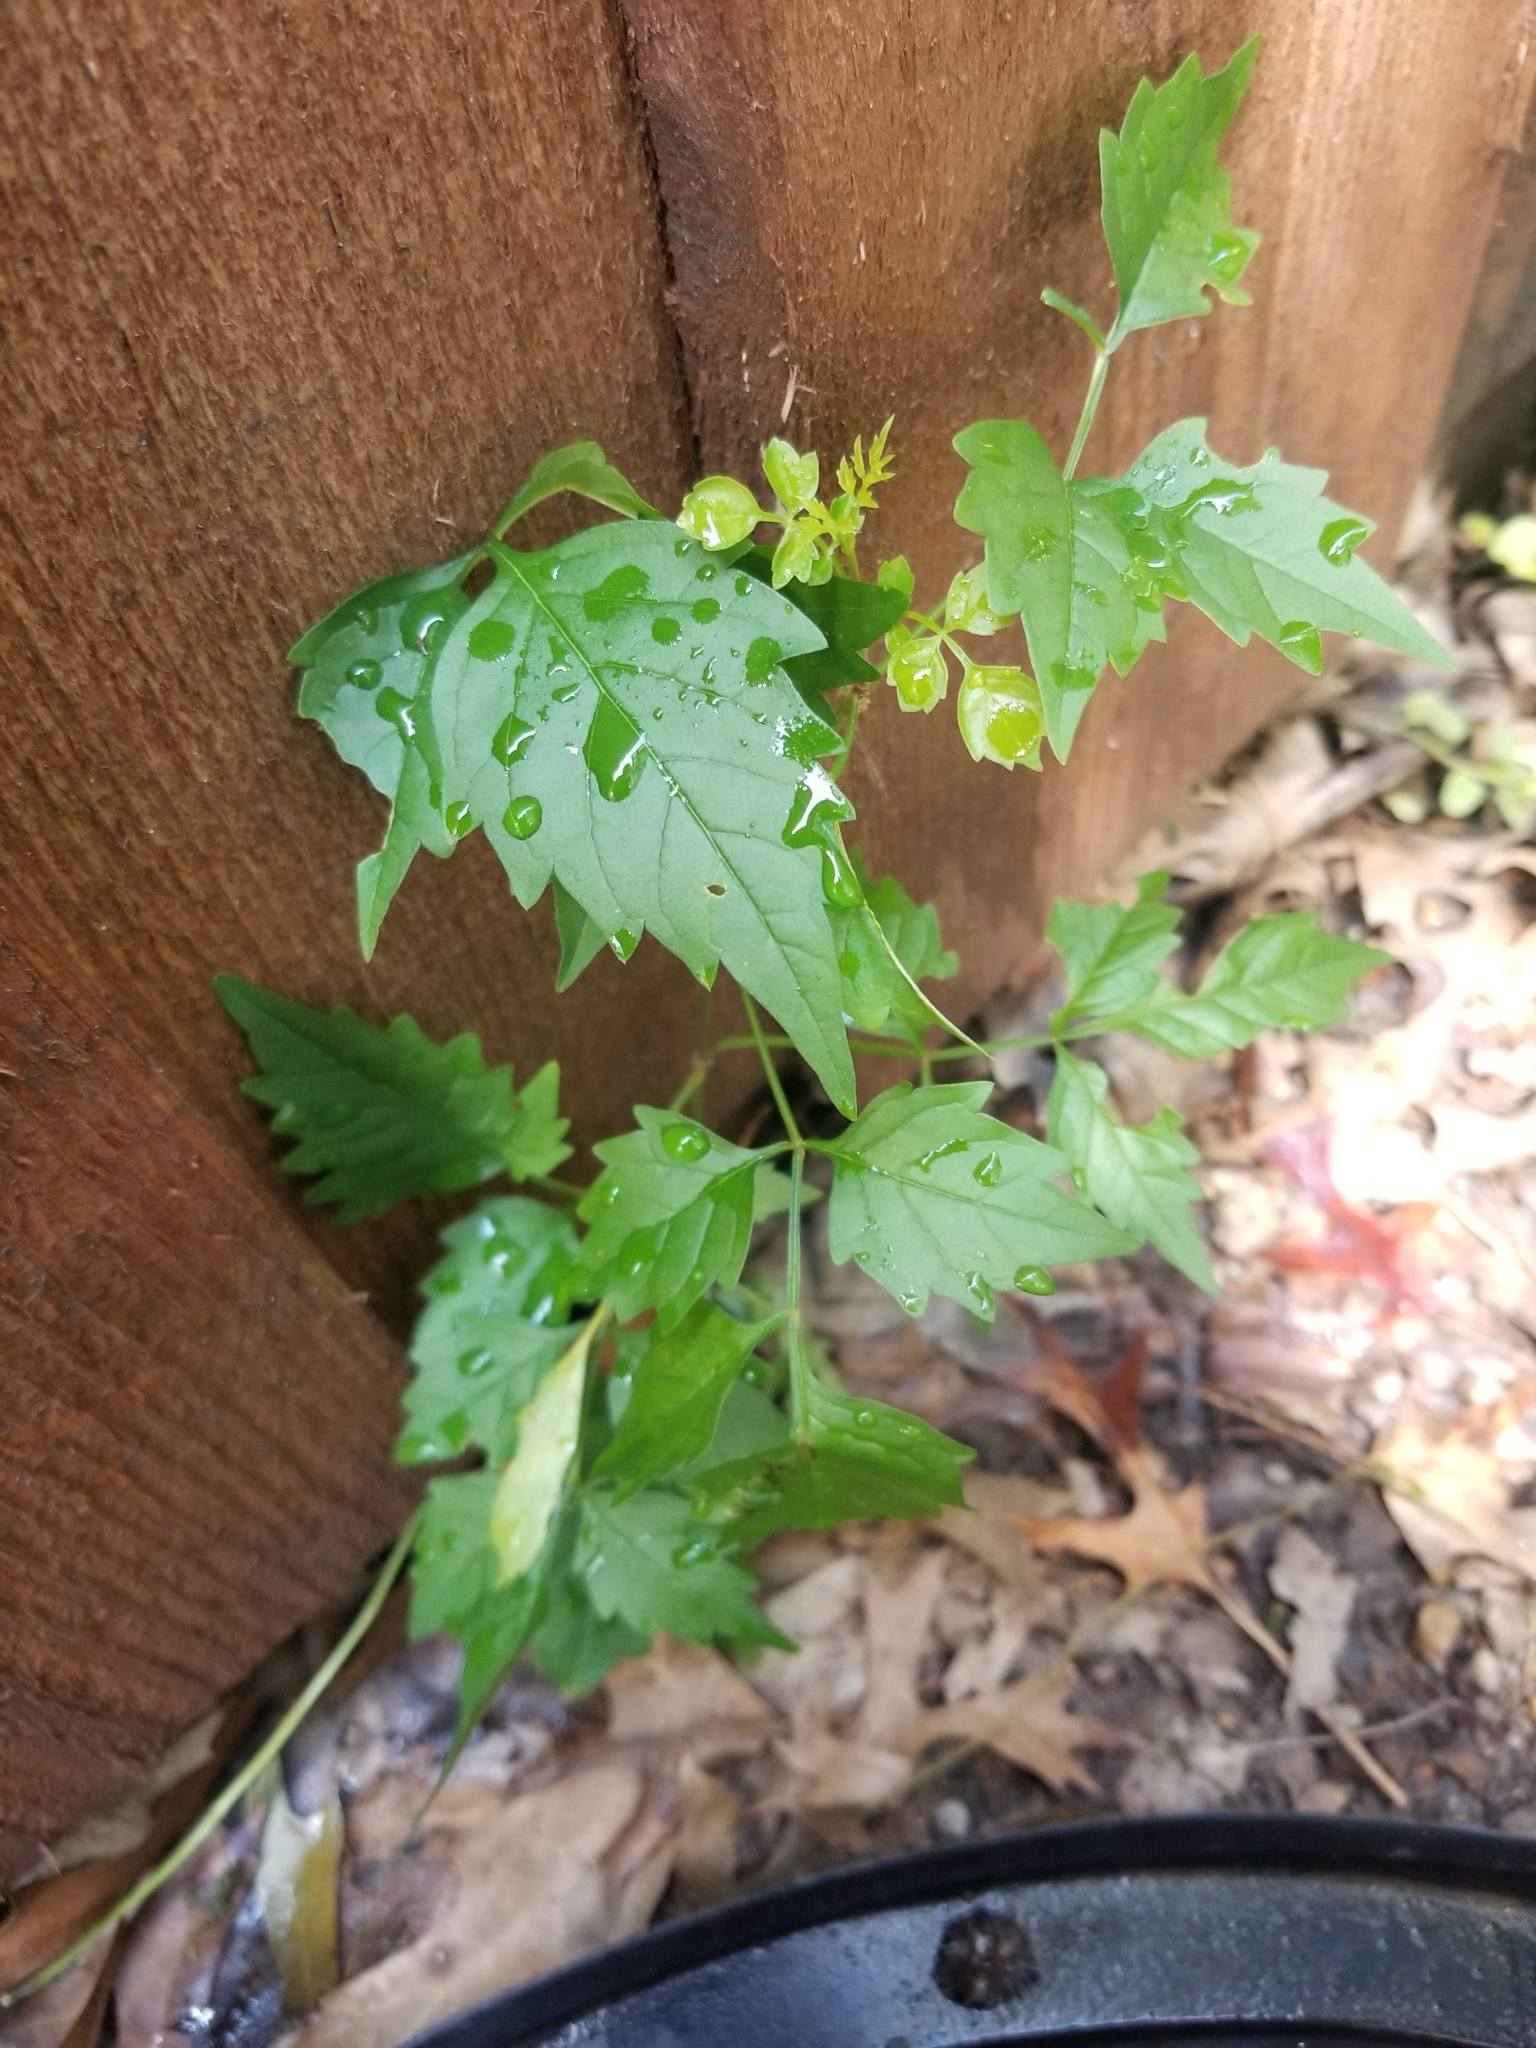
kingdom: Plantae
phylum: Tracheophyta
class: Magnoliopsida
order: Lamiales
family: Bignoniaceae
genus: Campsis
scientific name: Campsis radicans
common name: Trumpet-creeper
